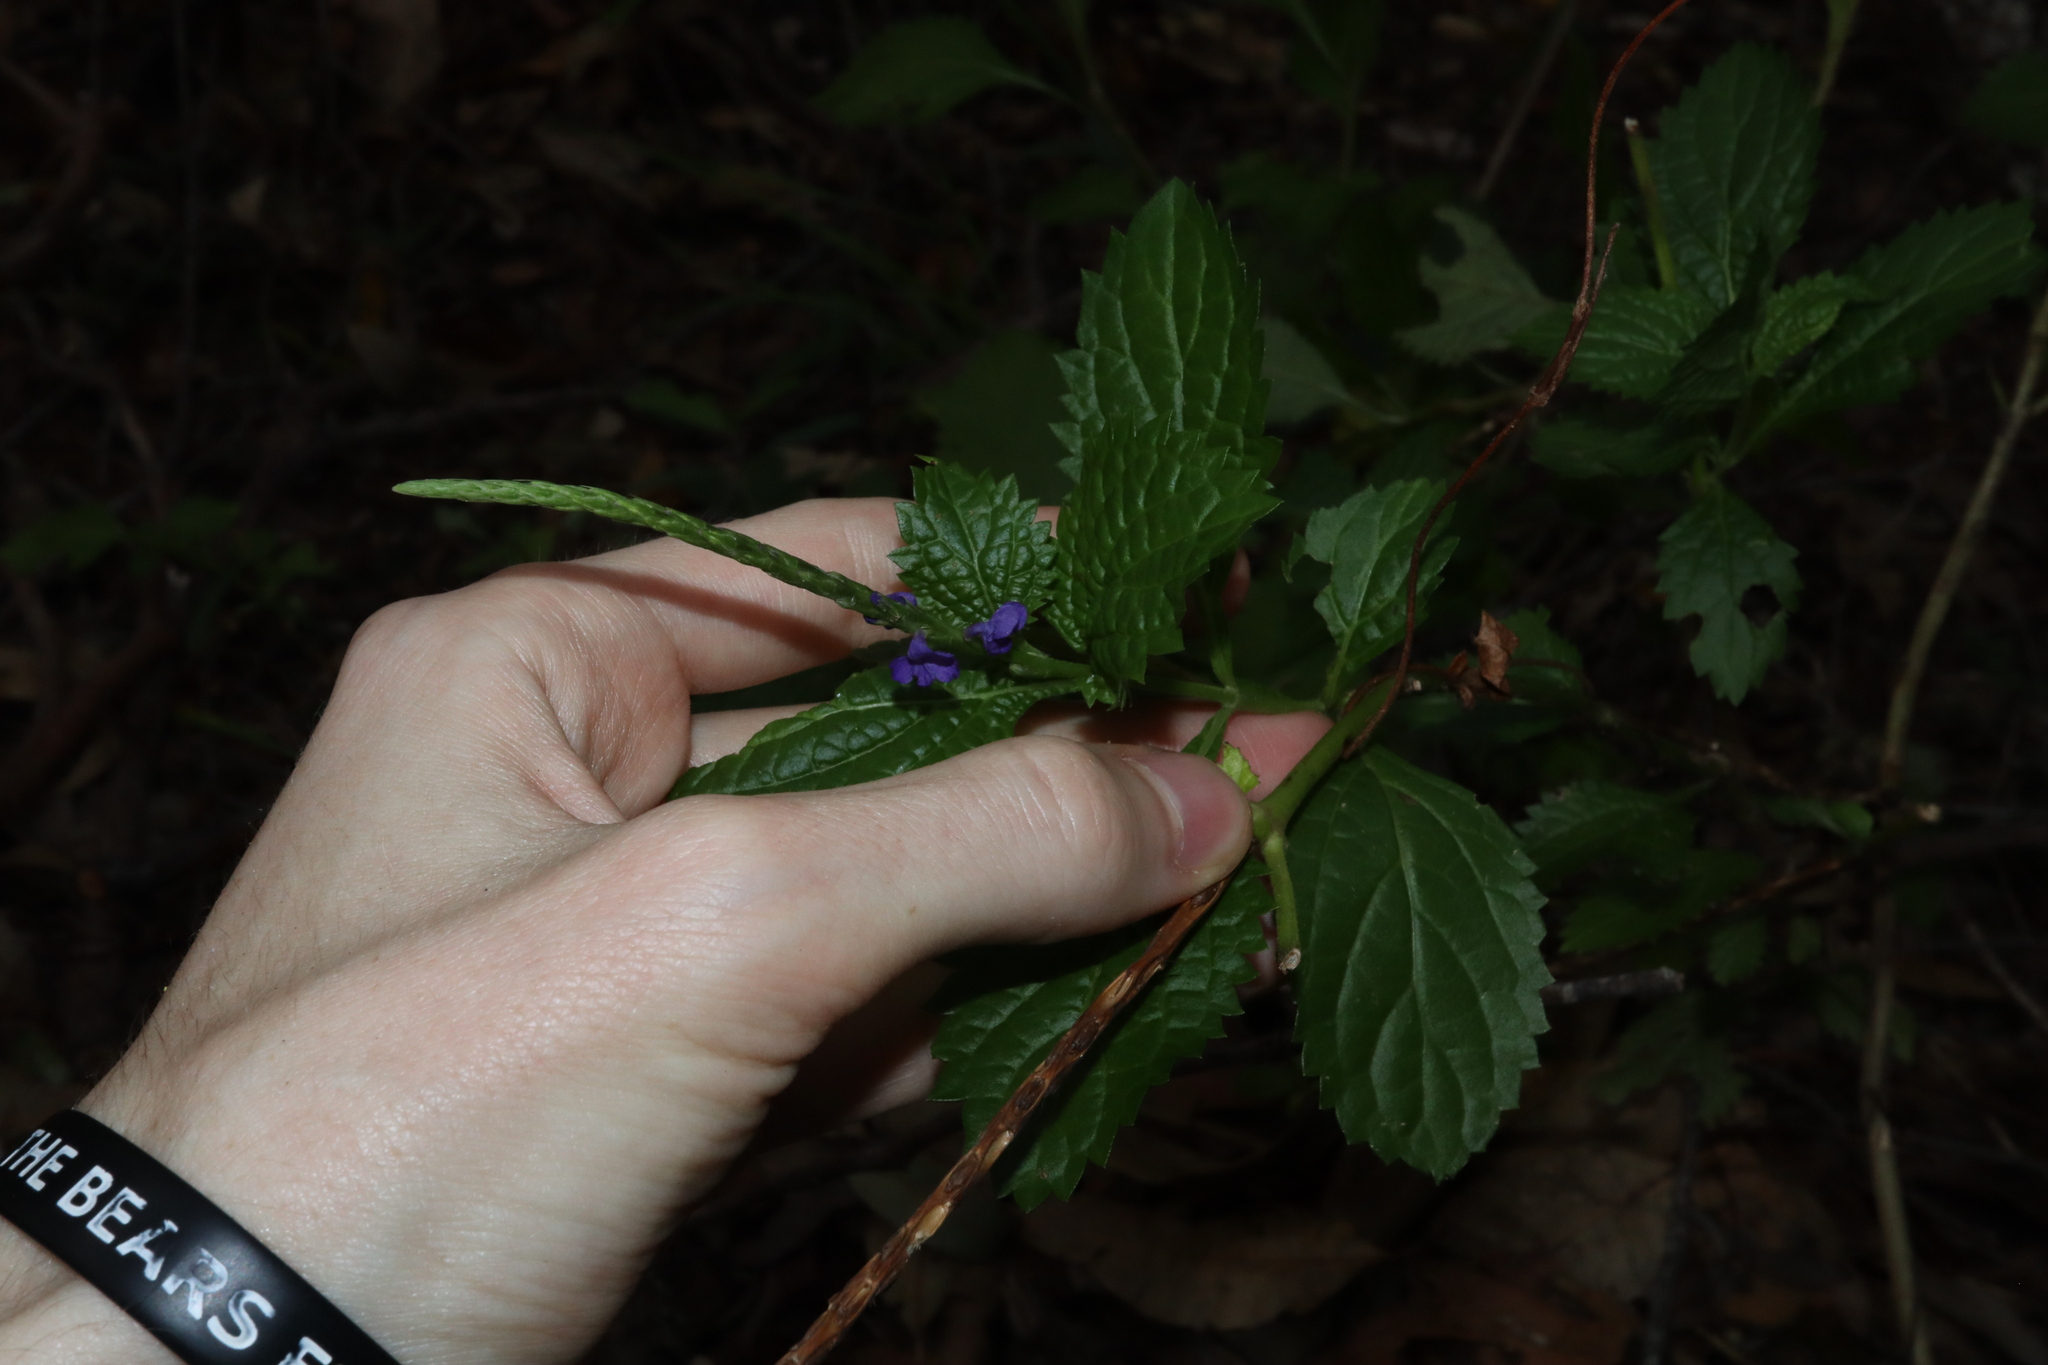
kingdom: Plantae
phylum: Tracheophyta
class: Magnoliopsida
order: Lamiales
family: Verbenaceae
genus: Stachytarpheta
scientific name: Stachytarpheta cayennensis
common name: Cayenne porterweed
